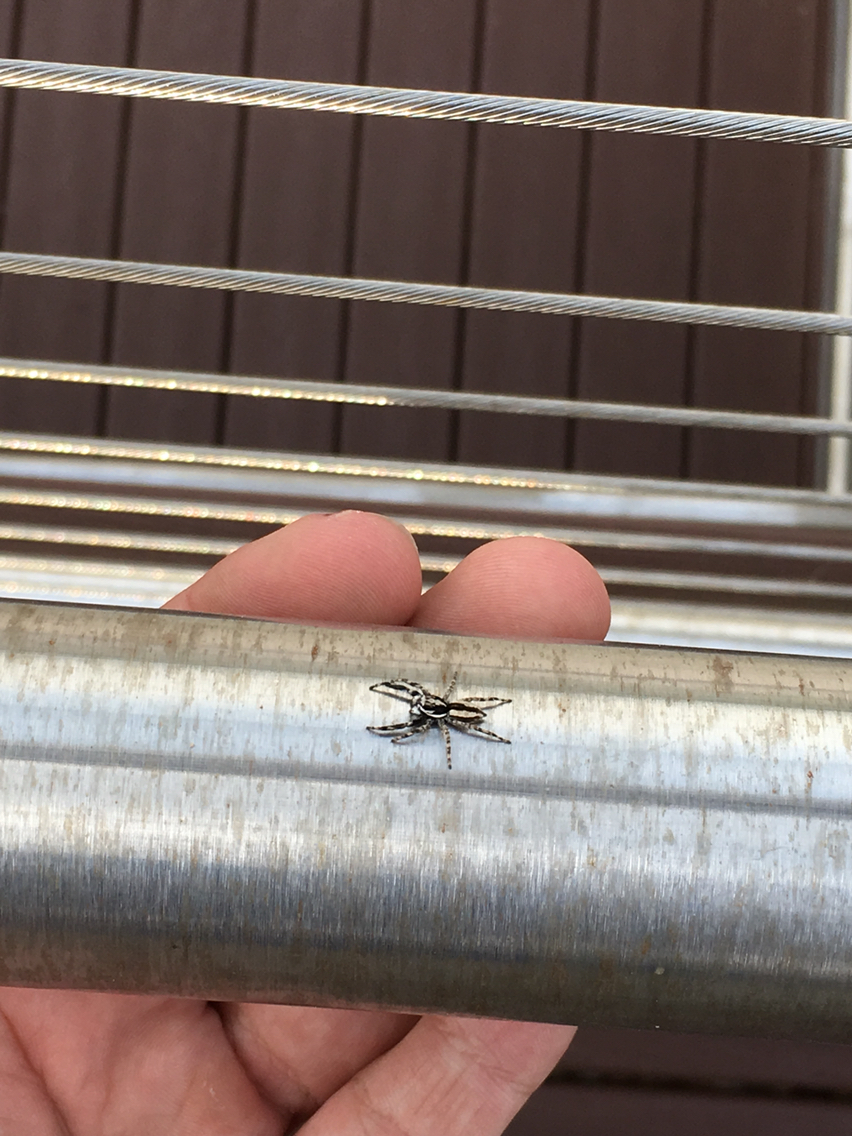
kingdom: Animalia
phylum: Arthropoda
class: Arachnida
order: Araneae
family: Salticidae
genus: Menemerus
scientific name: Menemerus bivittatus
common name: Gray wall jumper
